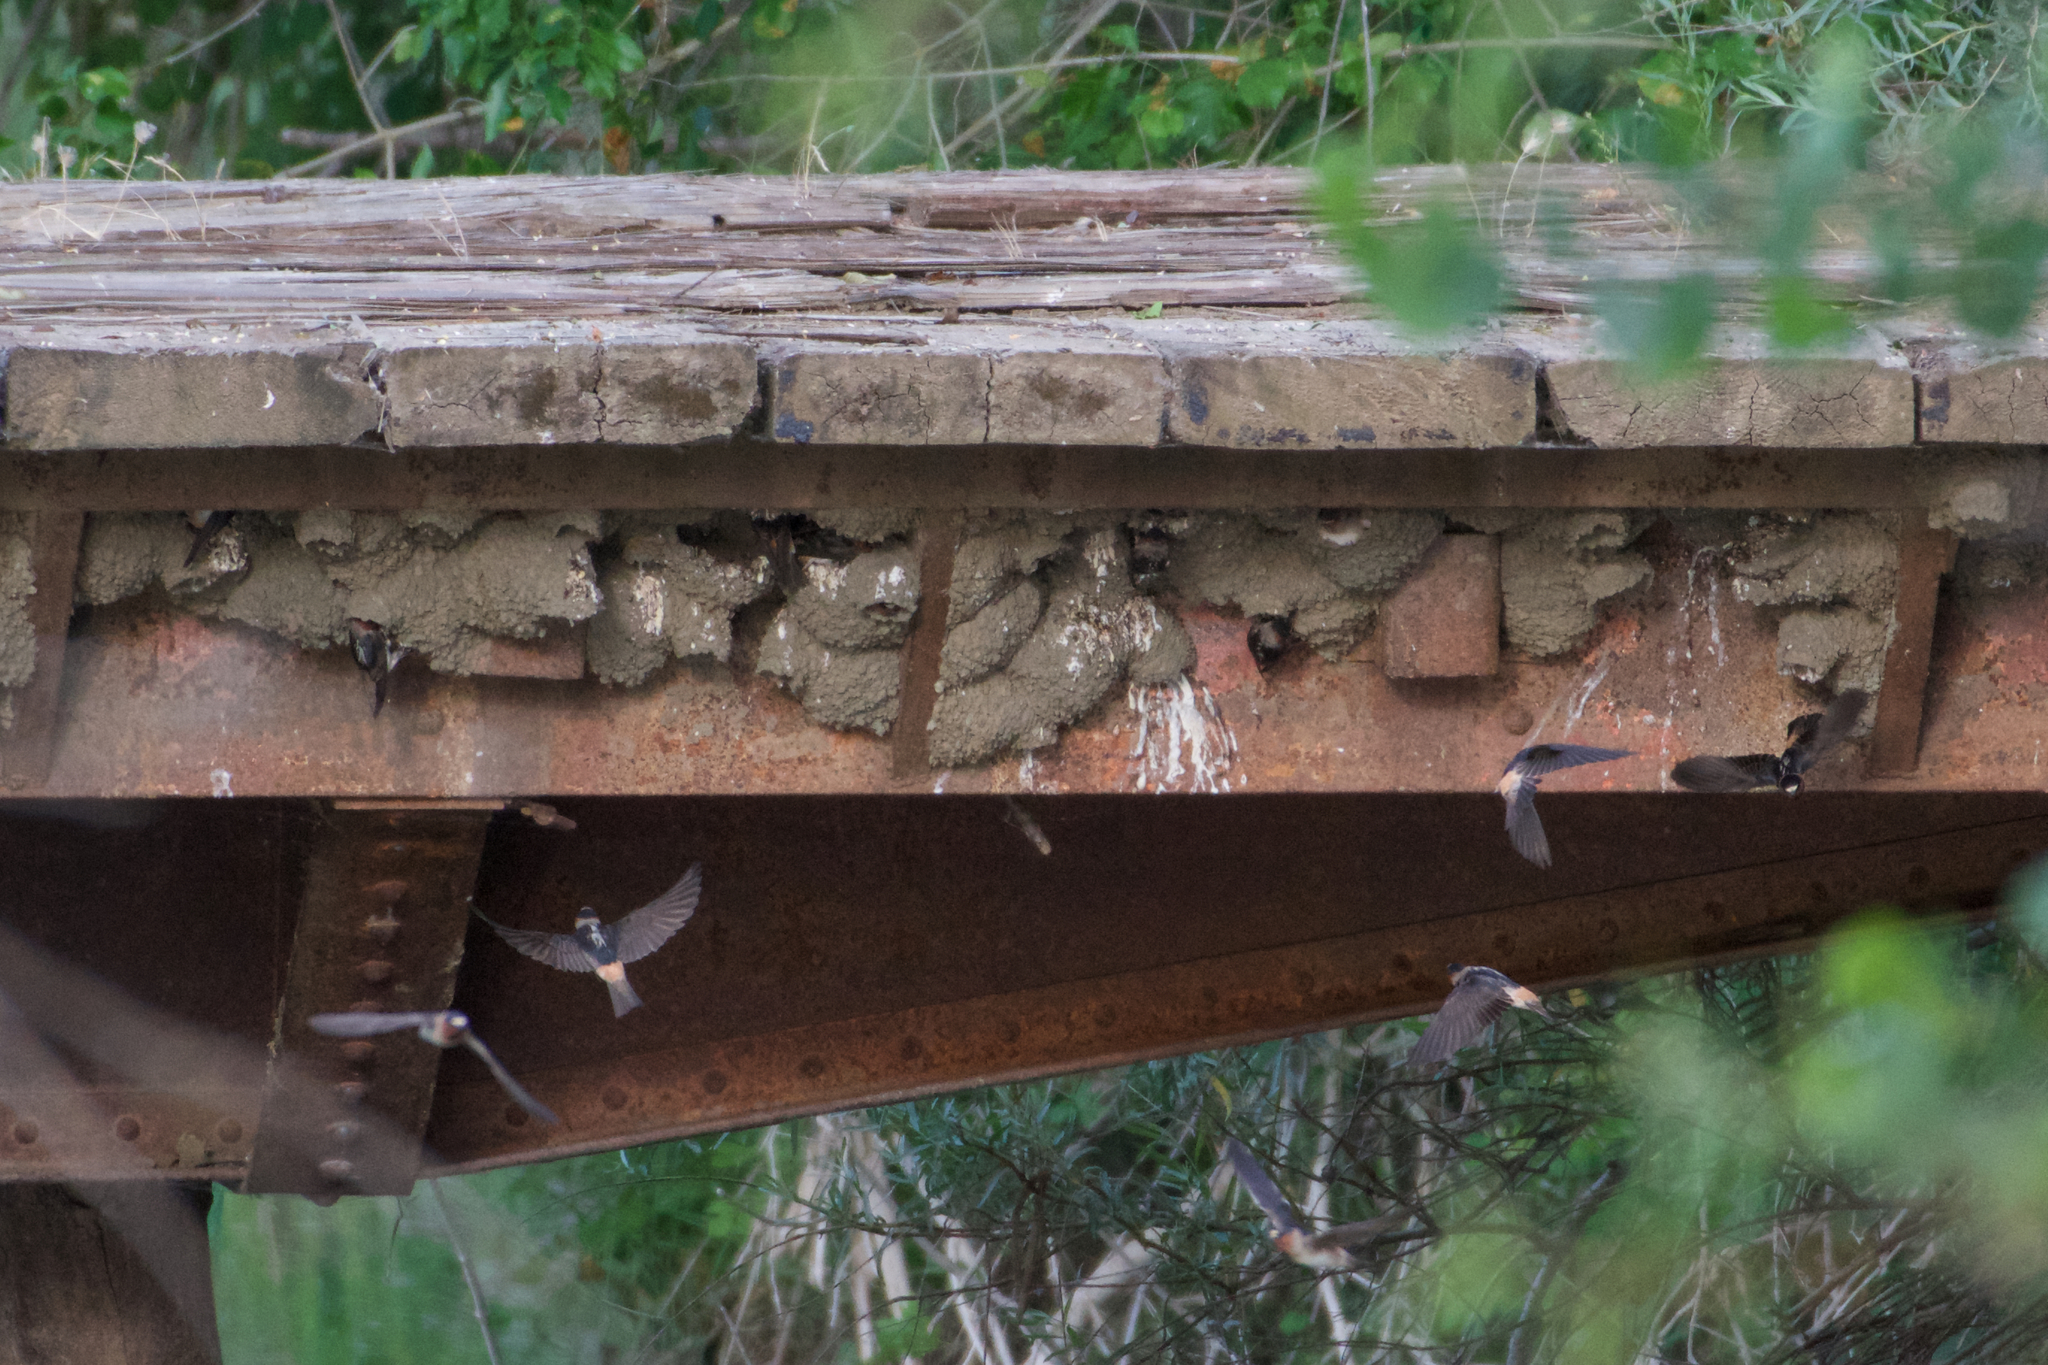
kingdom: Animalia
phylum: Chordata
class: Aves
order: Passeriformes
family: Hirundinidae
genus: Petrochelidon
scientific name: Petrochelidon pyrrhonota
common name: American cliff swallow
